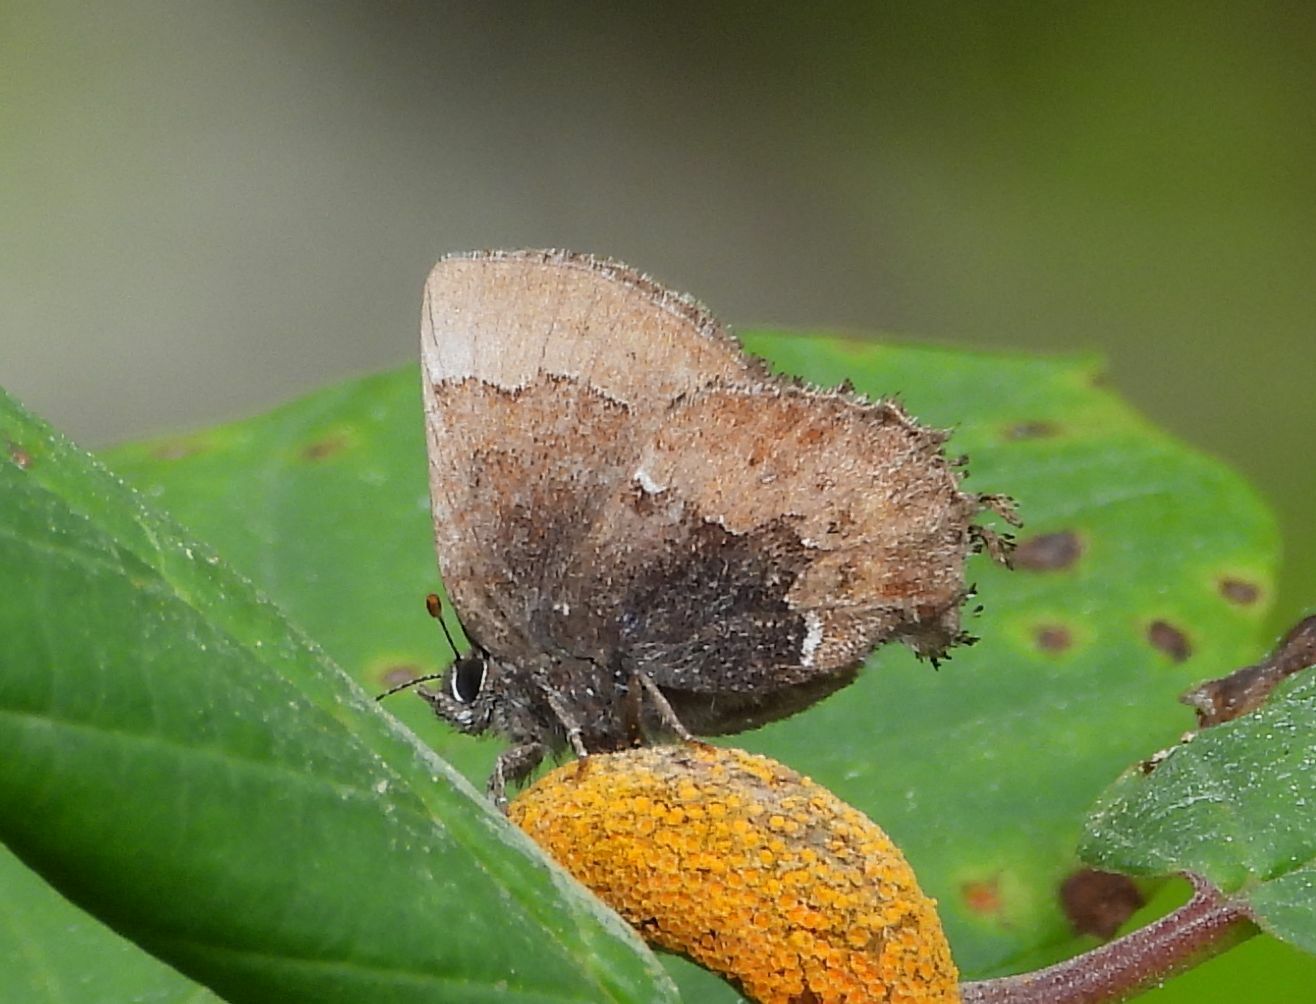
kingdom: Animalia
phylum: Arthropoda
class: Insecta
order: Lepidoptera
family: Lycaenidae
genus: Incisalia
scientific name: Incisalia henrici
